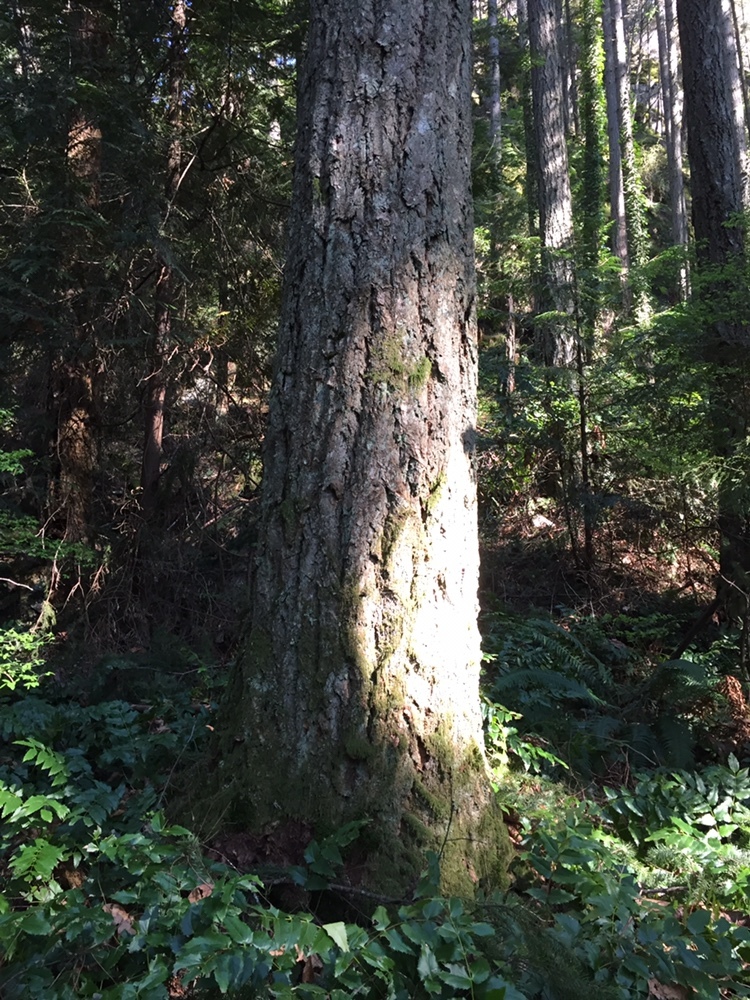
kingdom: Plantae
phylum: Tracheophyta
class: Pinopsida
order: Pinales
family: Pinaceae
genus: Pseudotsuga
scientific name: Pseudotsuga menziesii
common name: Douglas fir
